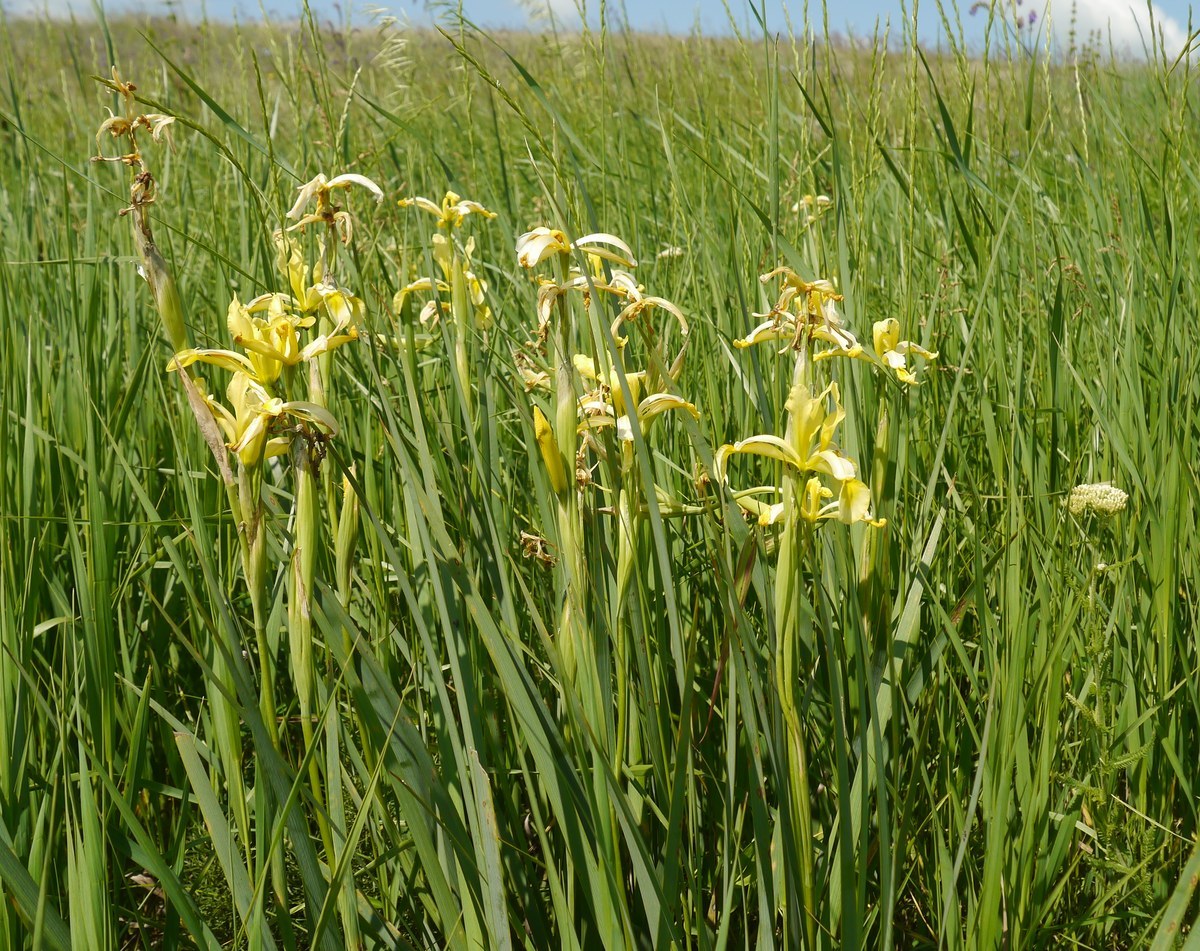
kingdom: Plantae
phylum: Tracheophyta
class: Liliopsida
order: Asparagales
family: Iridaceae
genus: Iris
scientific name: Iris halophila
